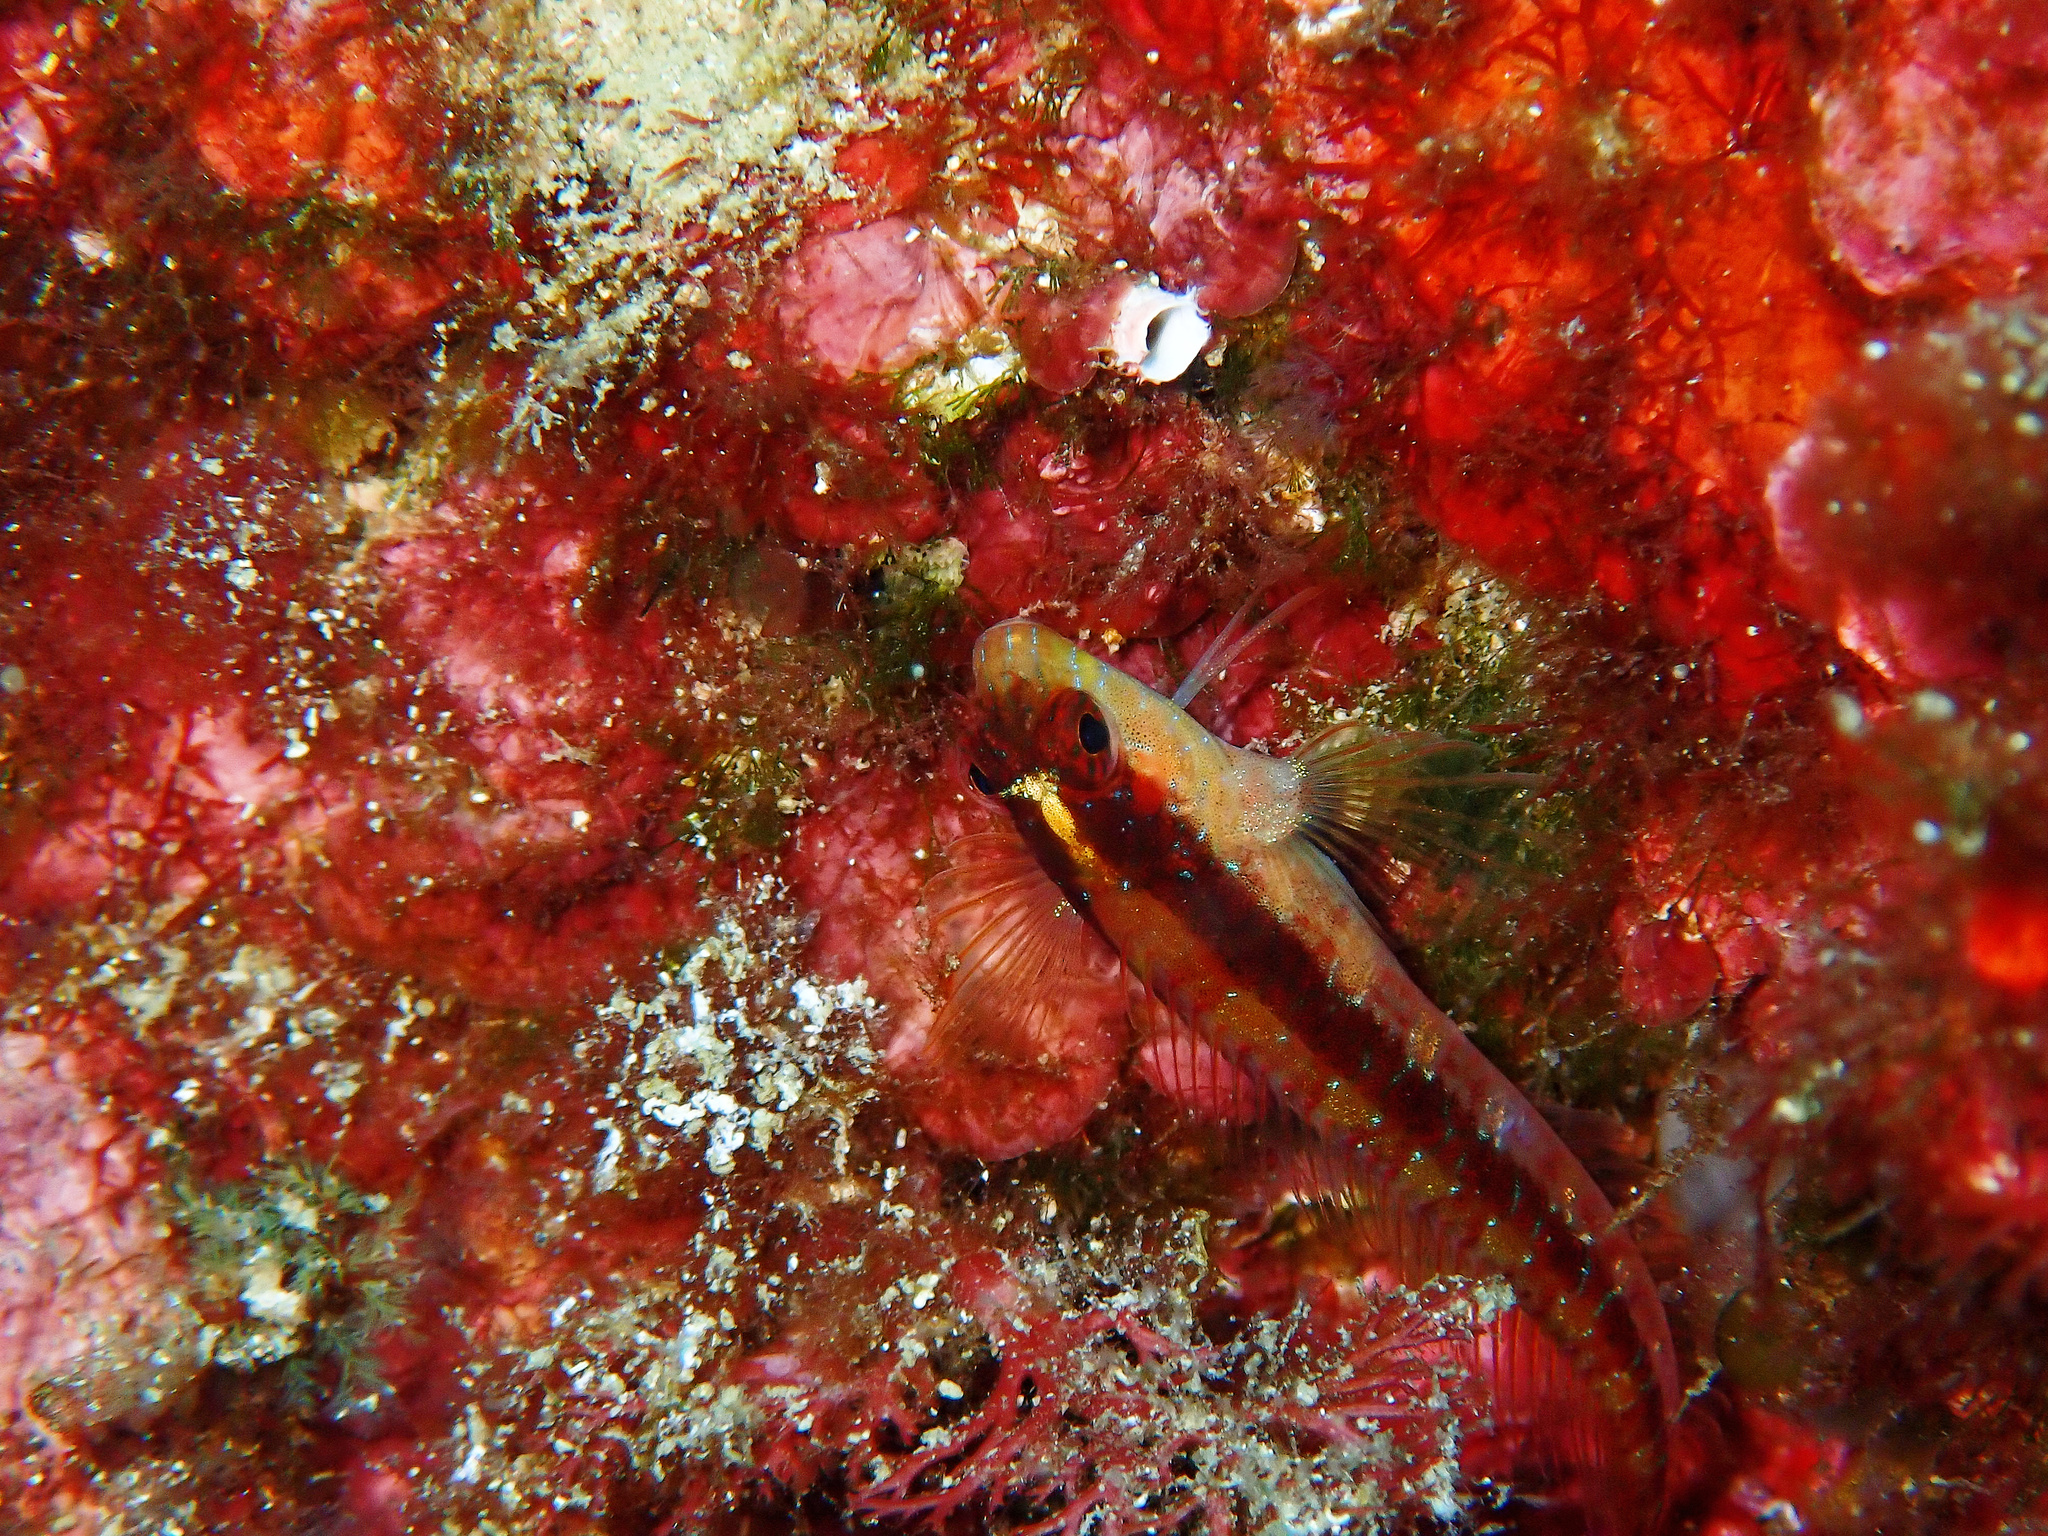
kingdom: Animalia
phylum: Chordata
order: Perciformes
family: Blenniidae
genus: Parablennius
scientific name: Parablennius rouxi
